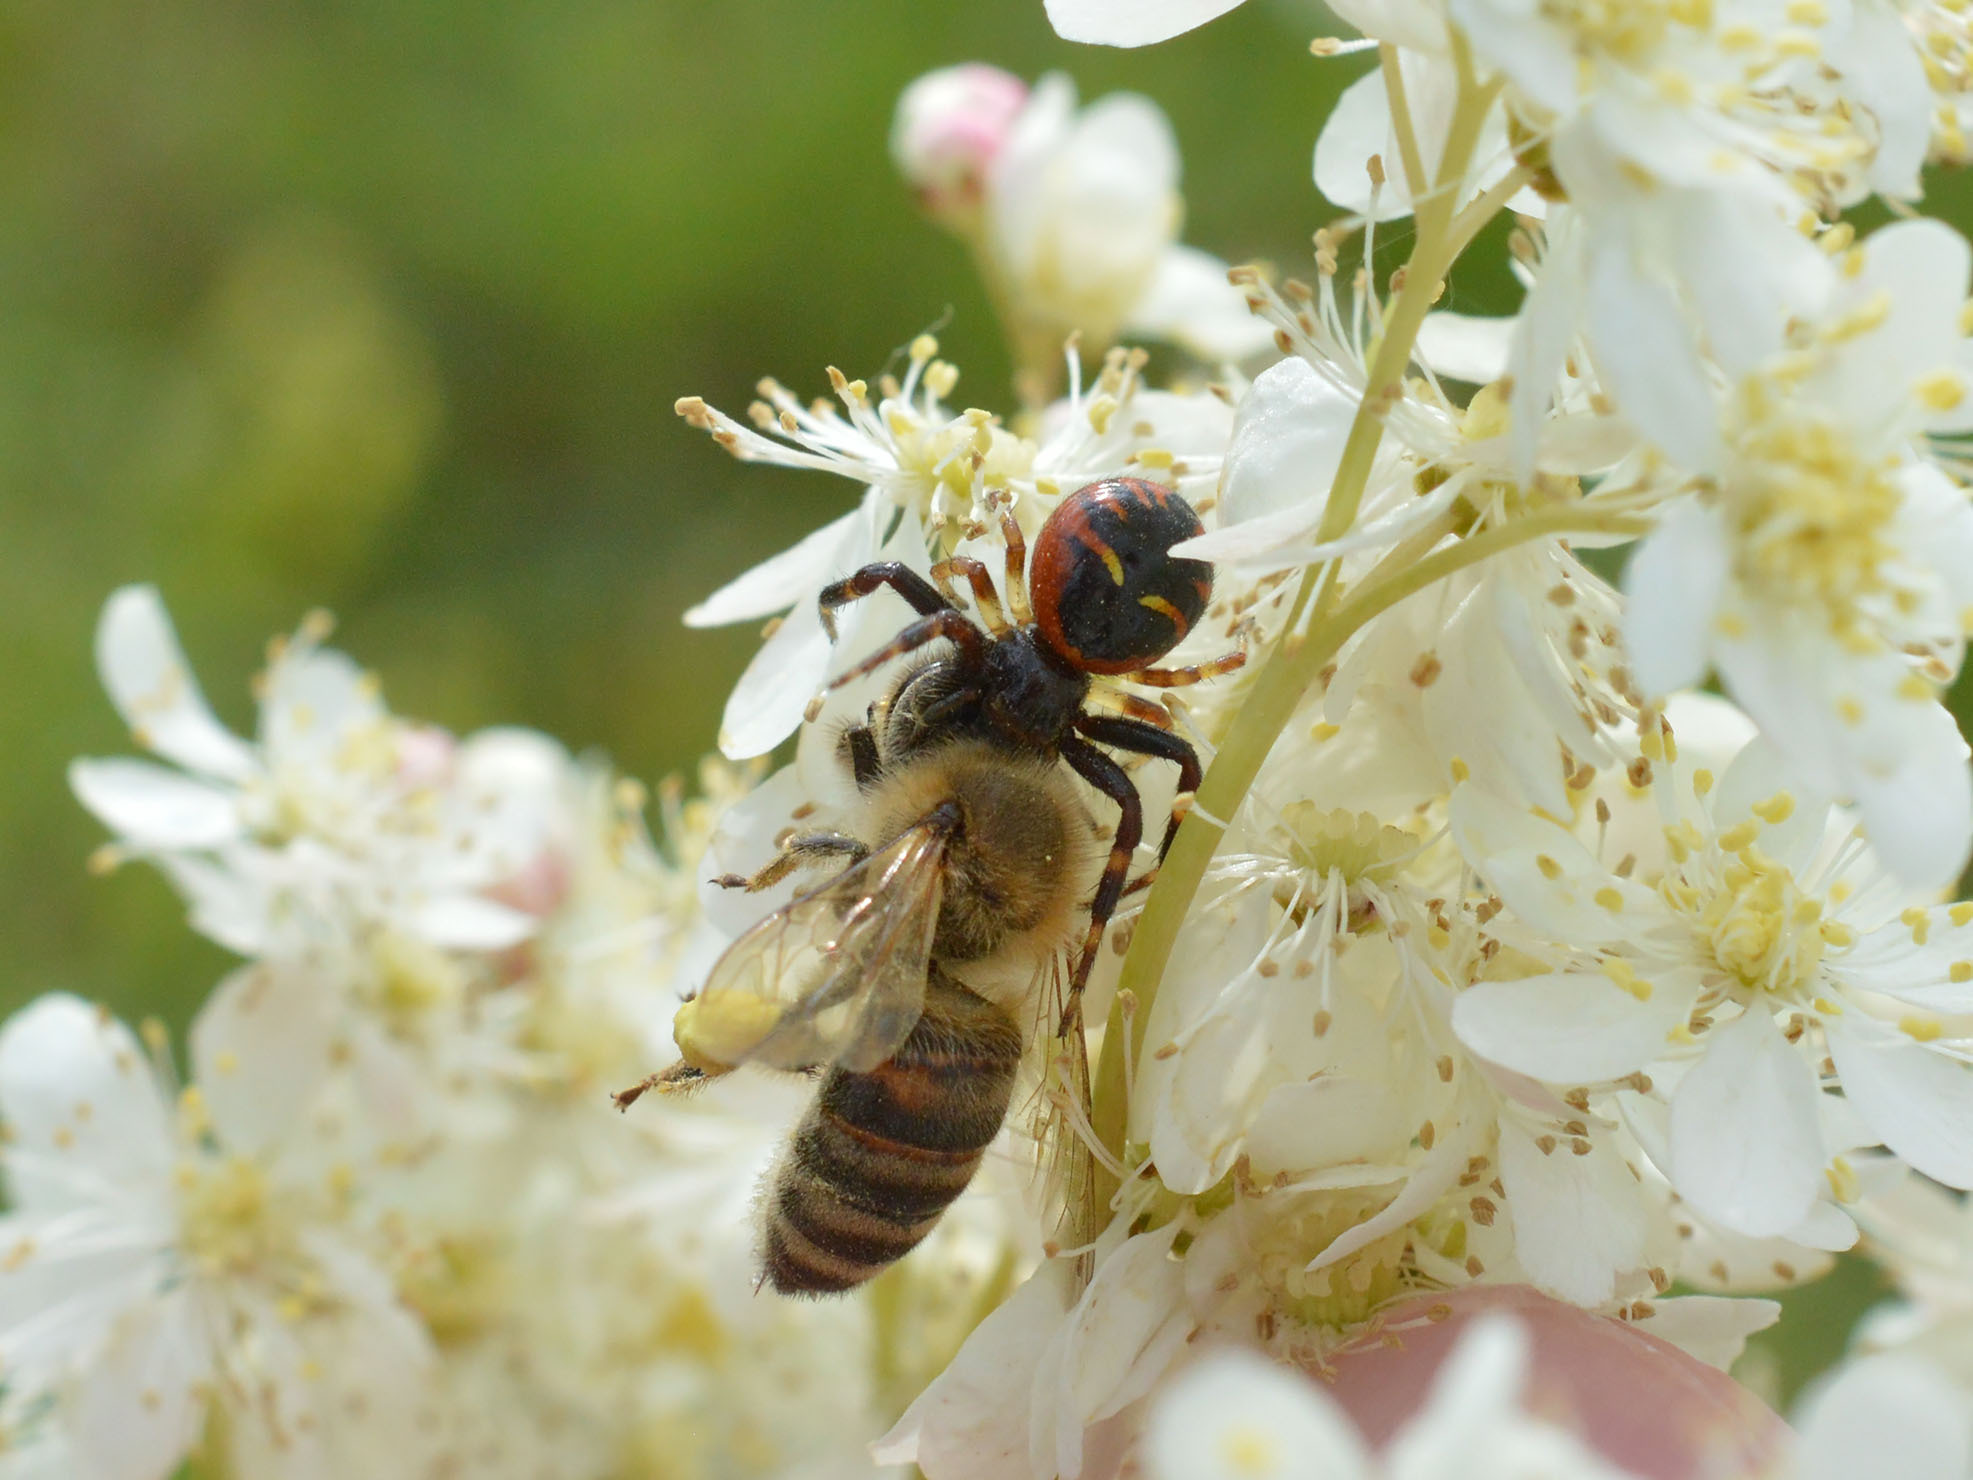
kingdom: Animalia
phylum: Arthropoda
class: Arachnida
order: Araneae
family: Thomisidae
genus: Synema
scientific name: Synema globosum
